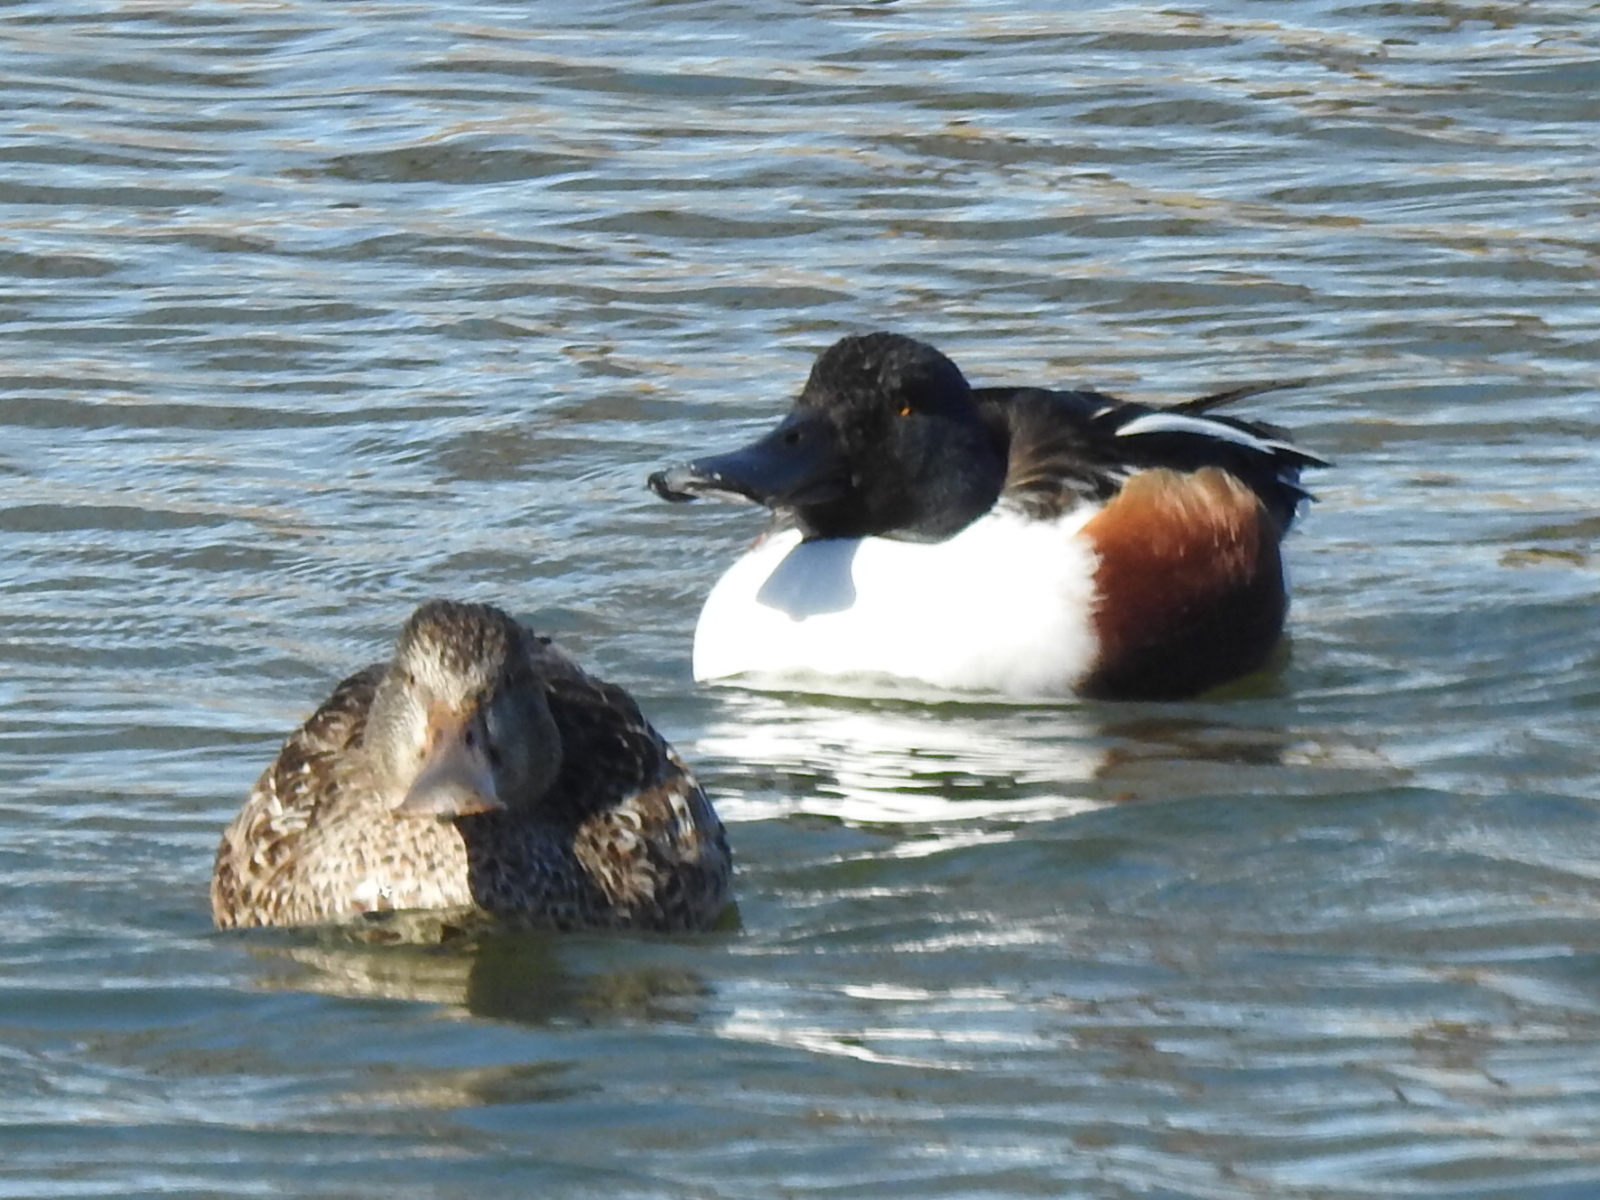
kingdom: Animalia
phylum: Chordata
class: Aves
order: Anseriformes
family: Anatidae
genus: Spatula
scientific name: Spatula clypeata
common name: Northern shoveler
